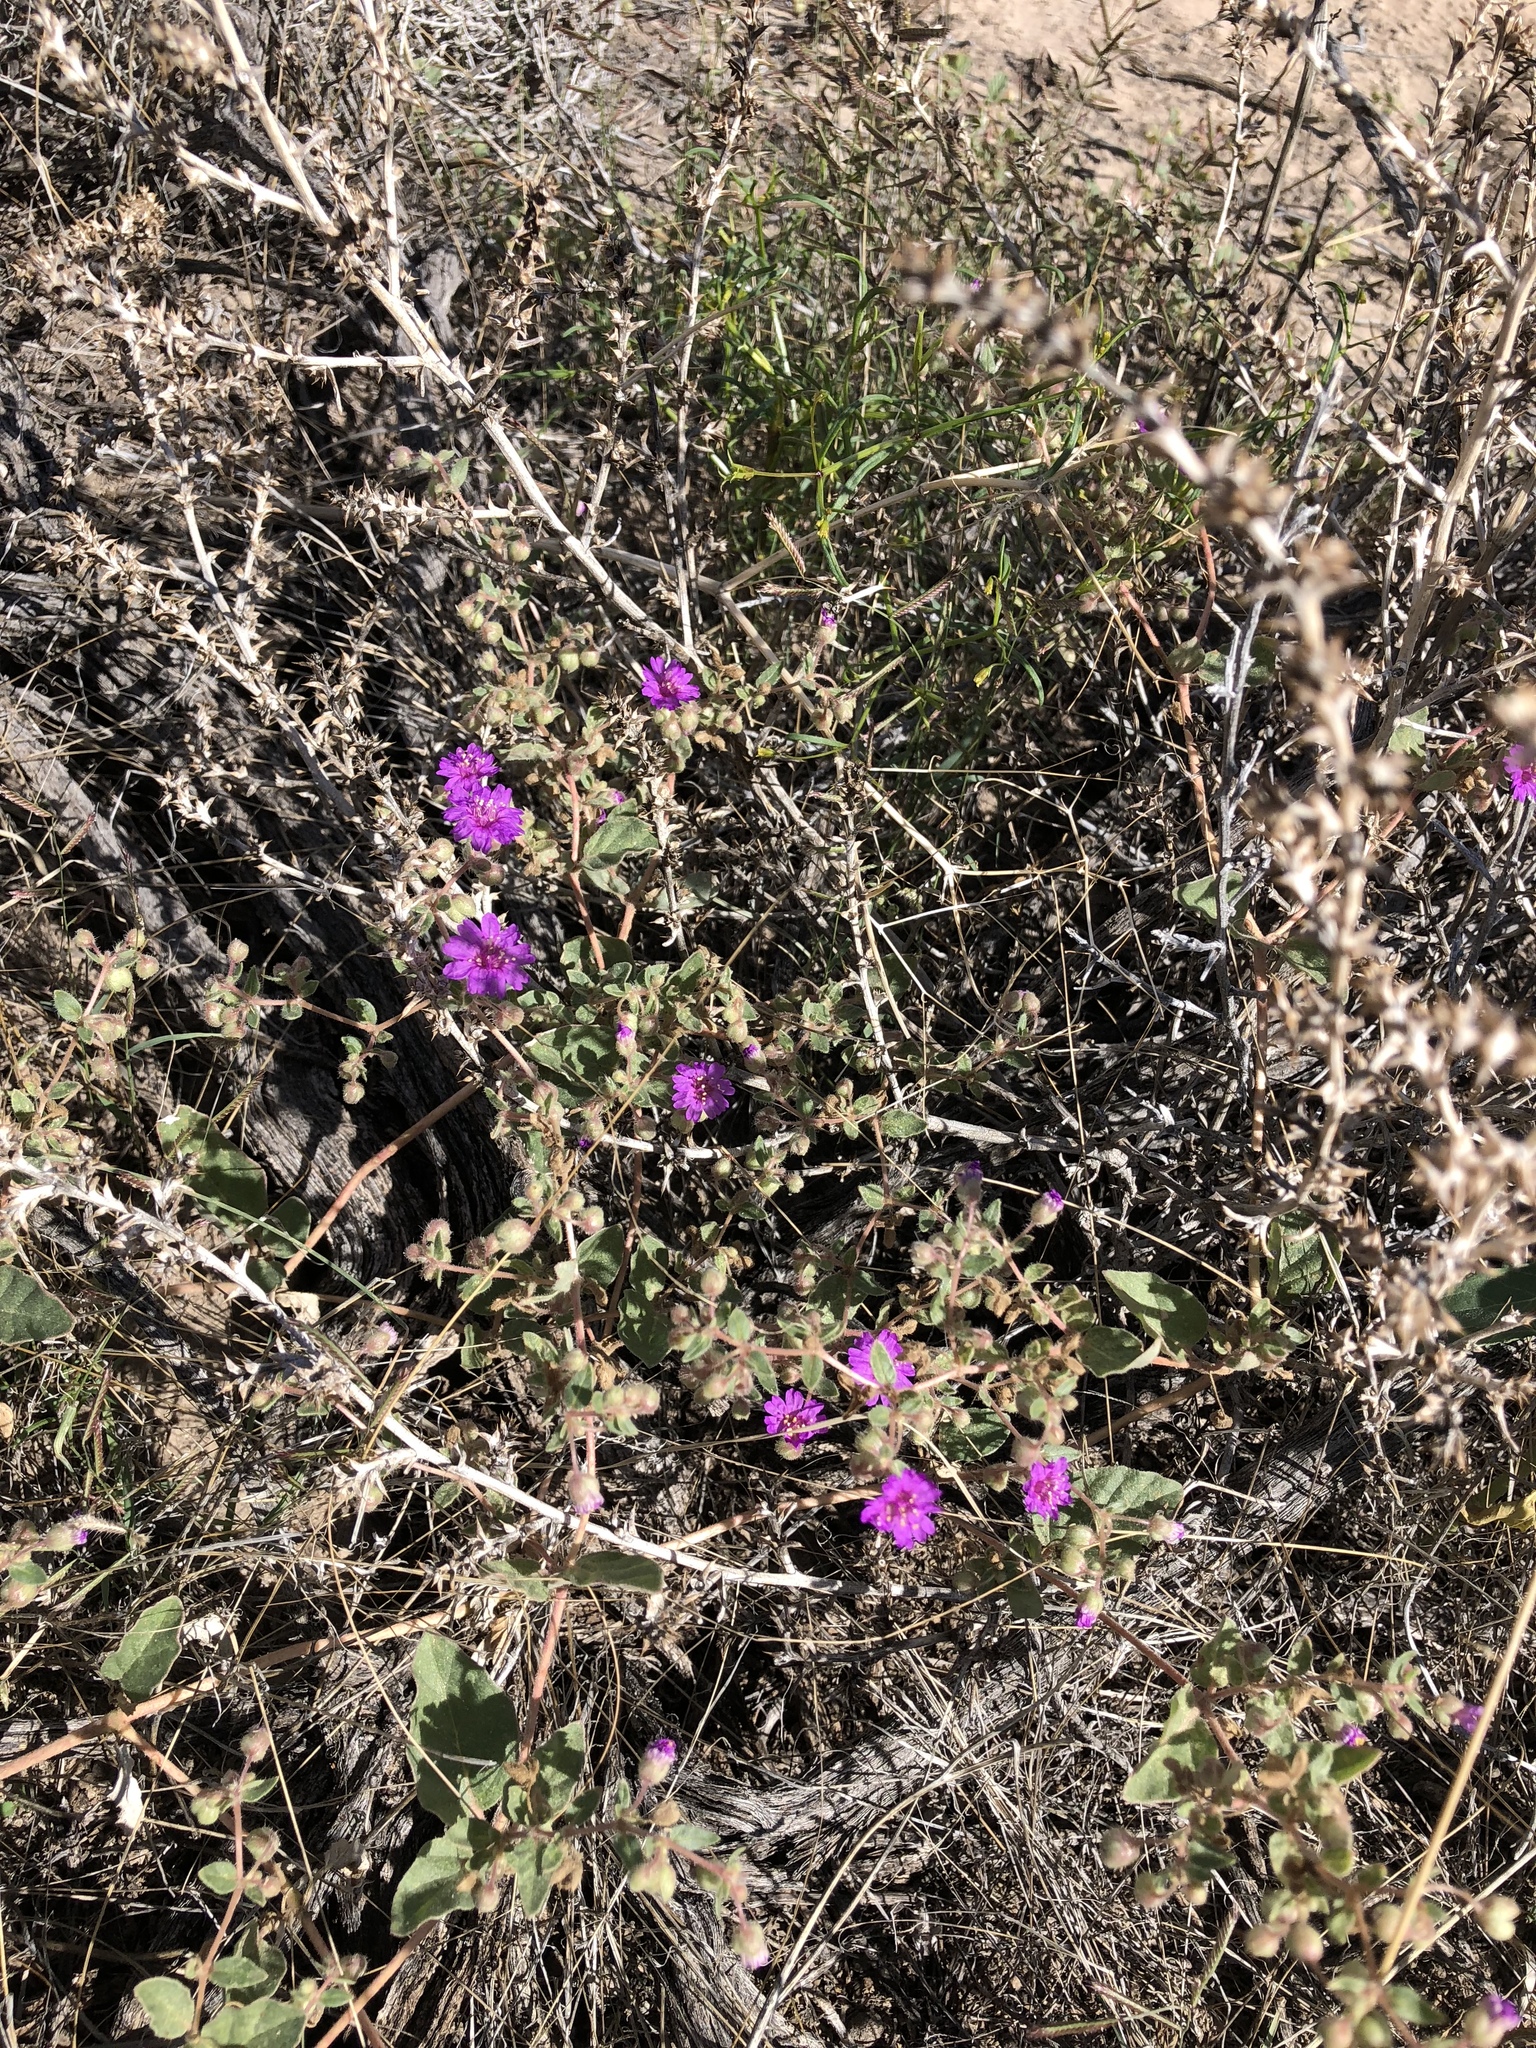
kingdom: Plantae
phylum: Tracheophyta
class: Magnoliopsida
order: Caryophyllales
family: Nyctaginaceae
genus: Allionia
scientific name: Allionia incarnata
